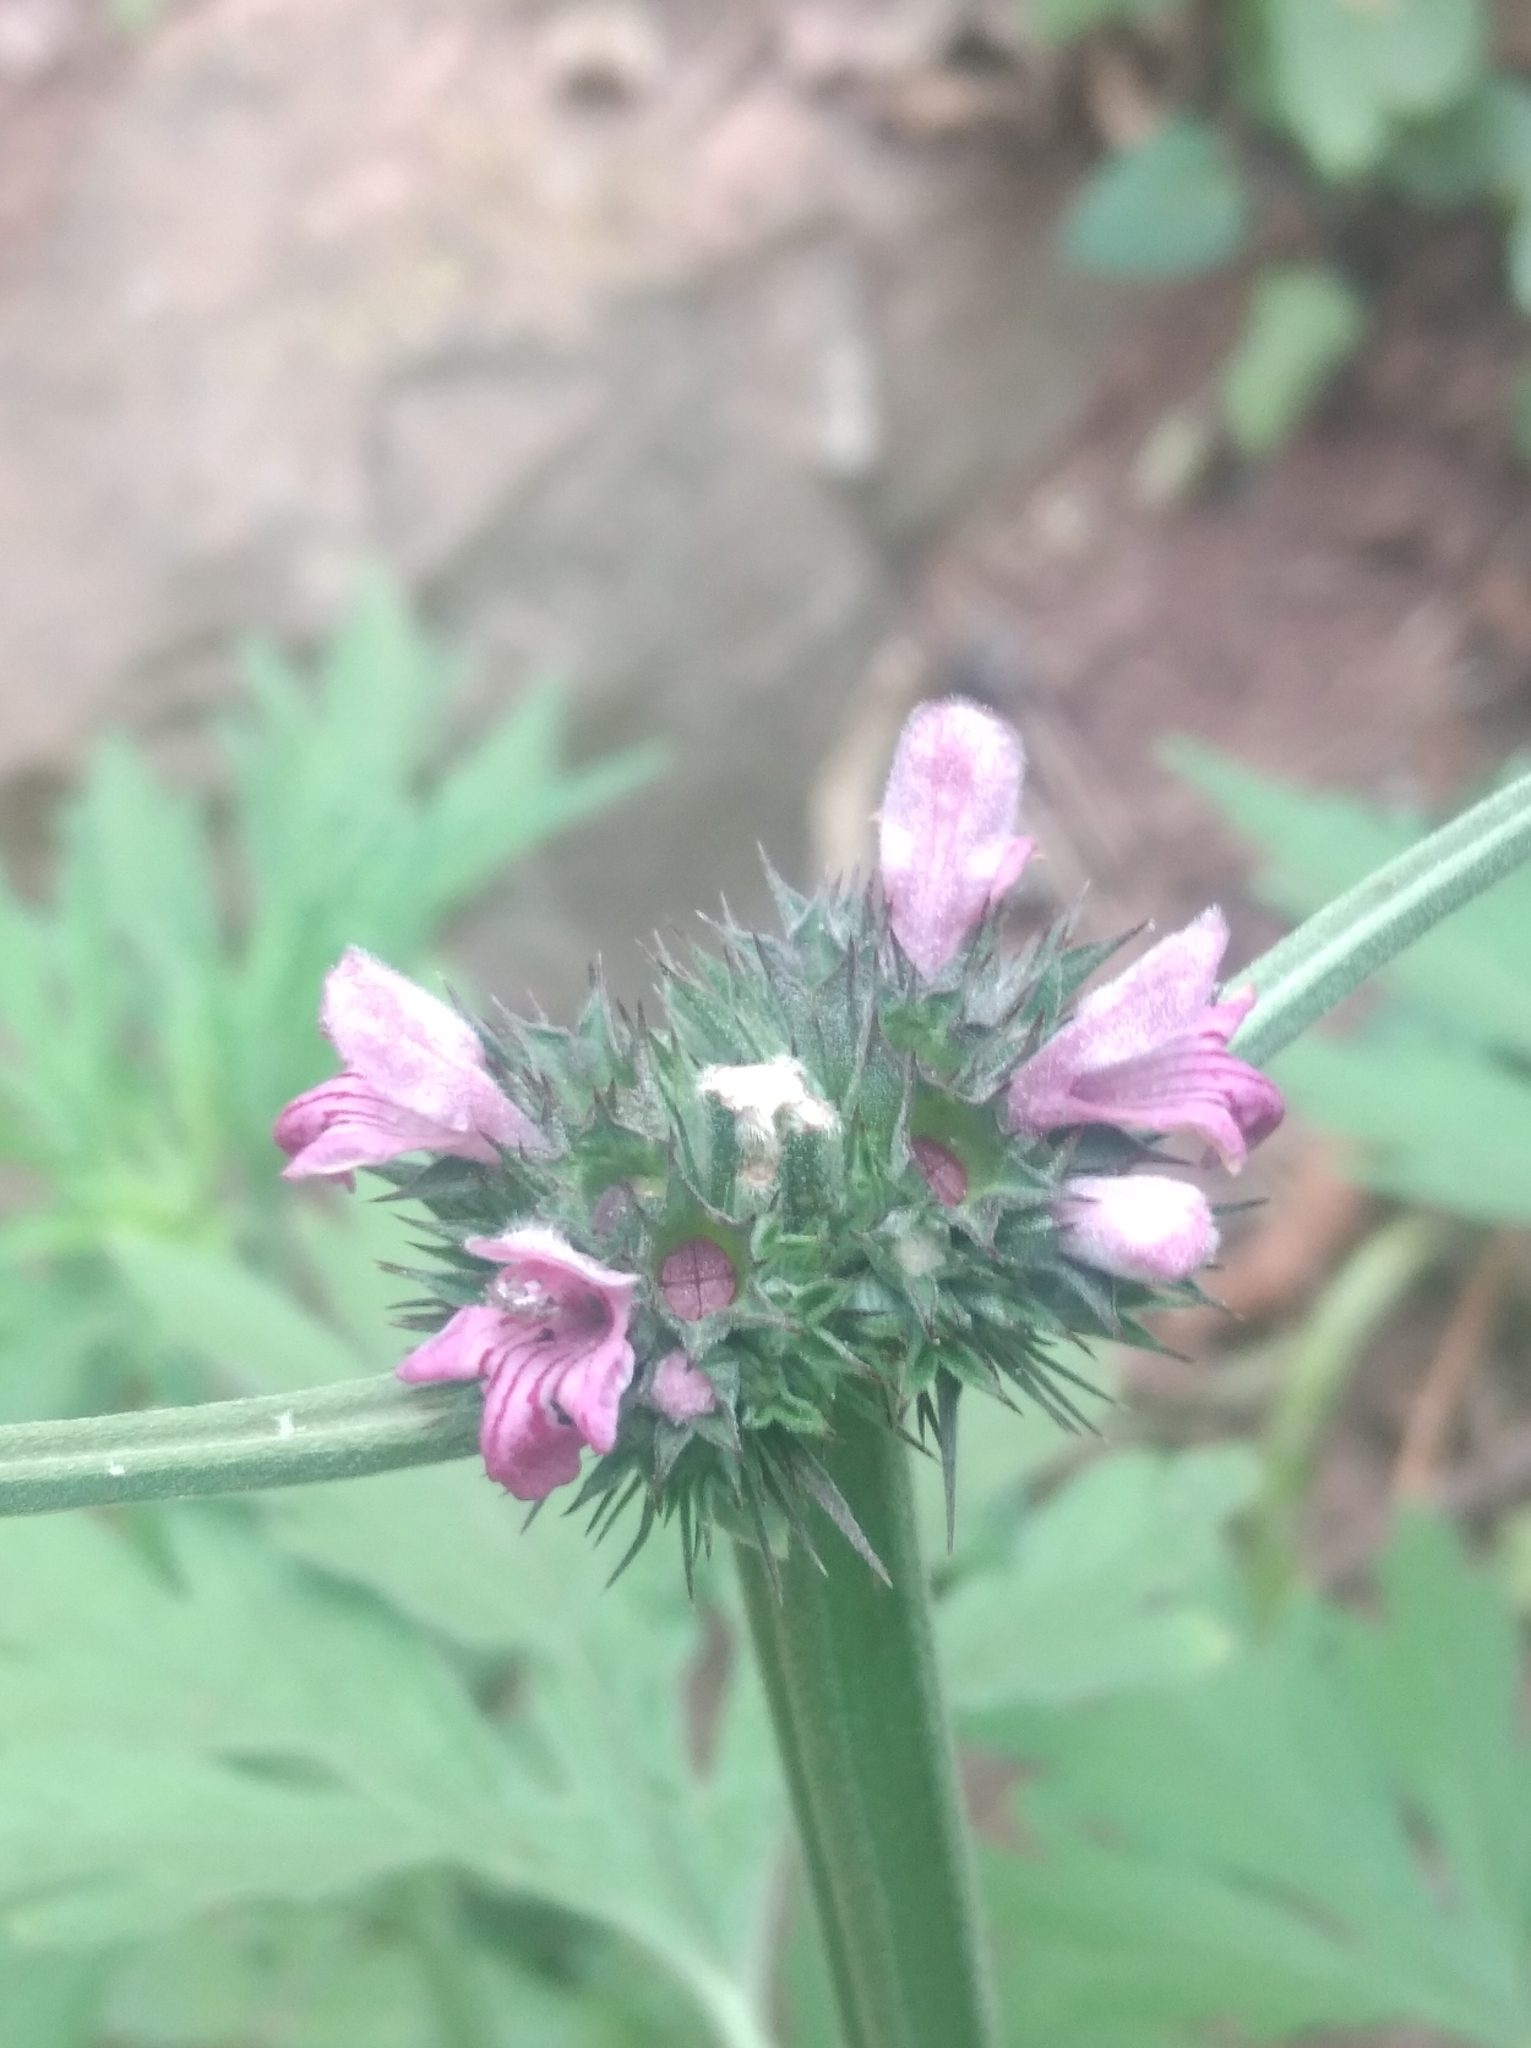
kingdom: Plantae
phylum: Tracheophyta
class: Magnoliopsida
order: Lamiales
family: Lamiaceae
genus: Leonurus
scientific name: Leonurus japonicus
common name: Honeyweed
